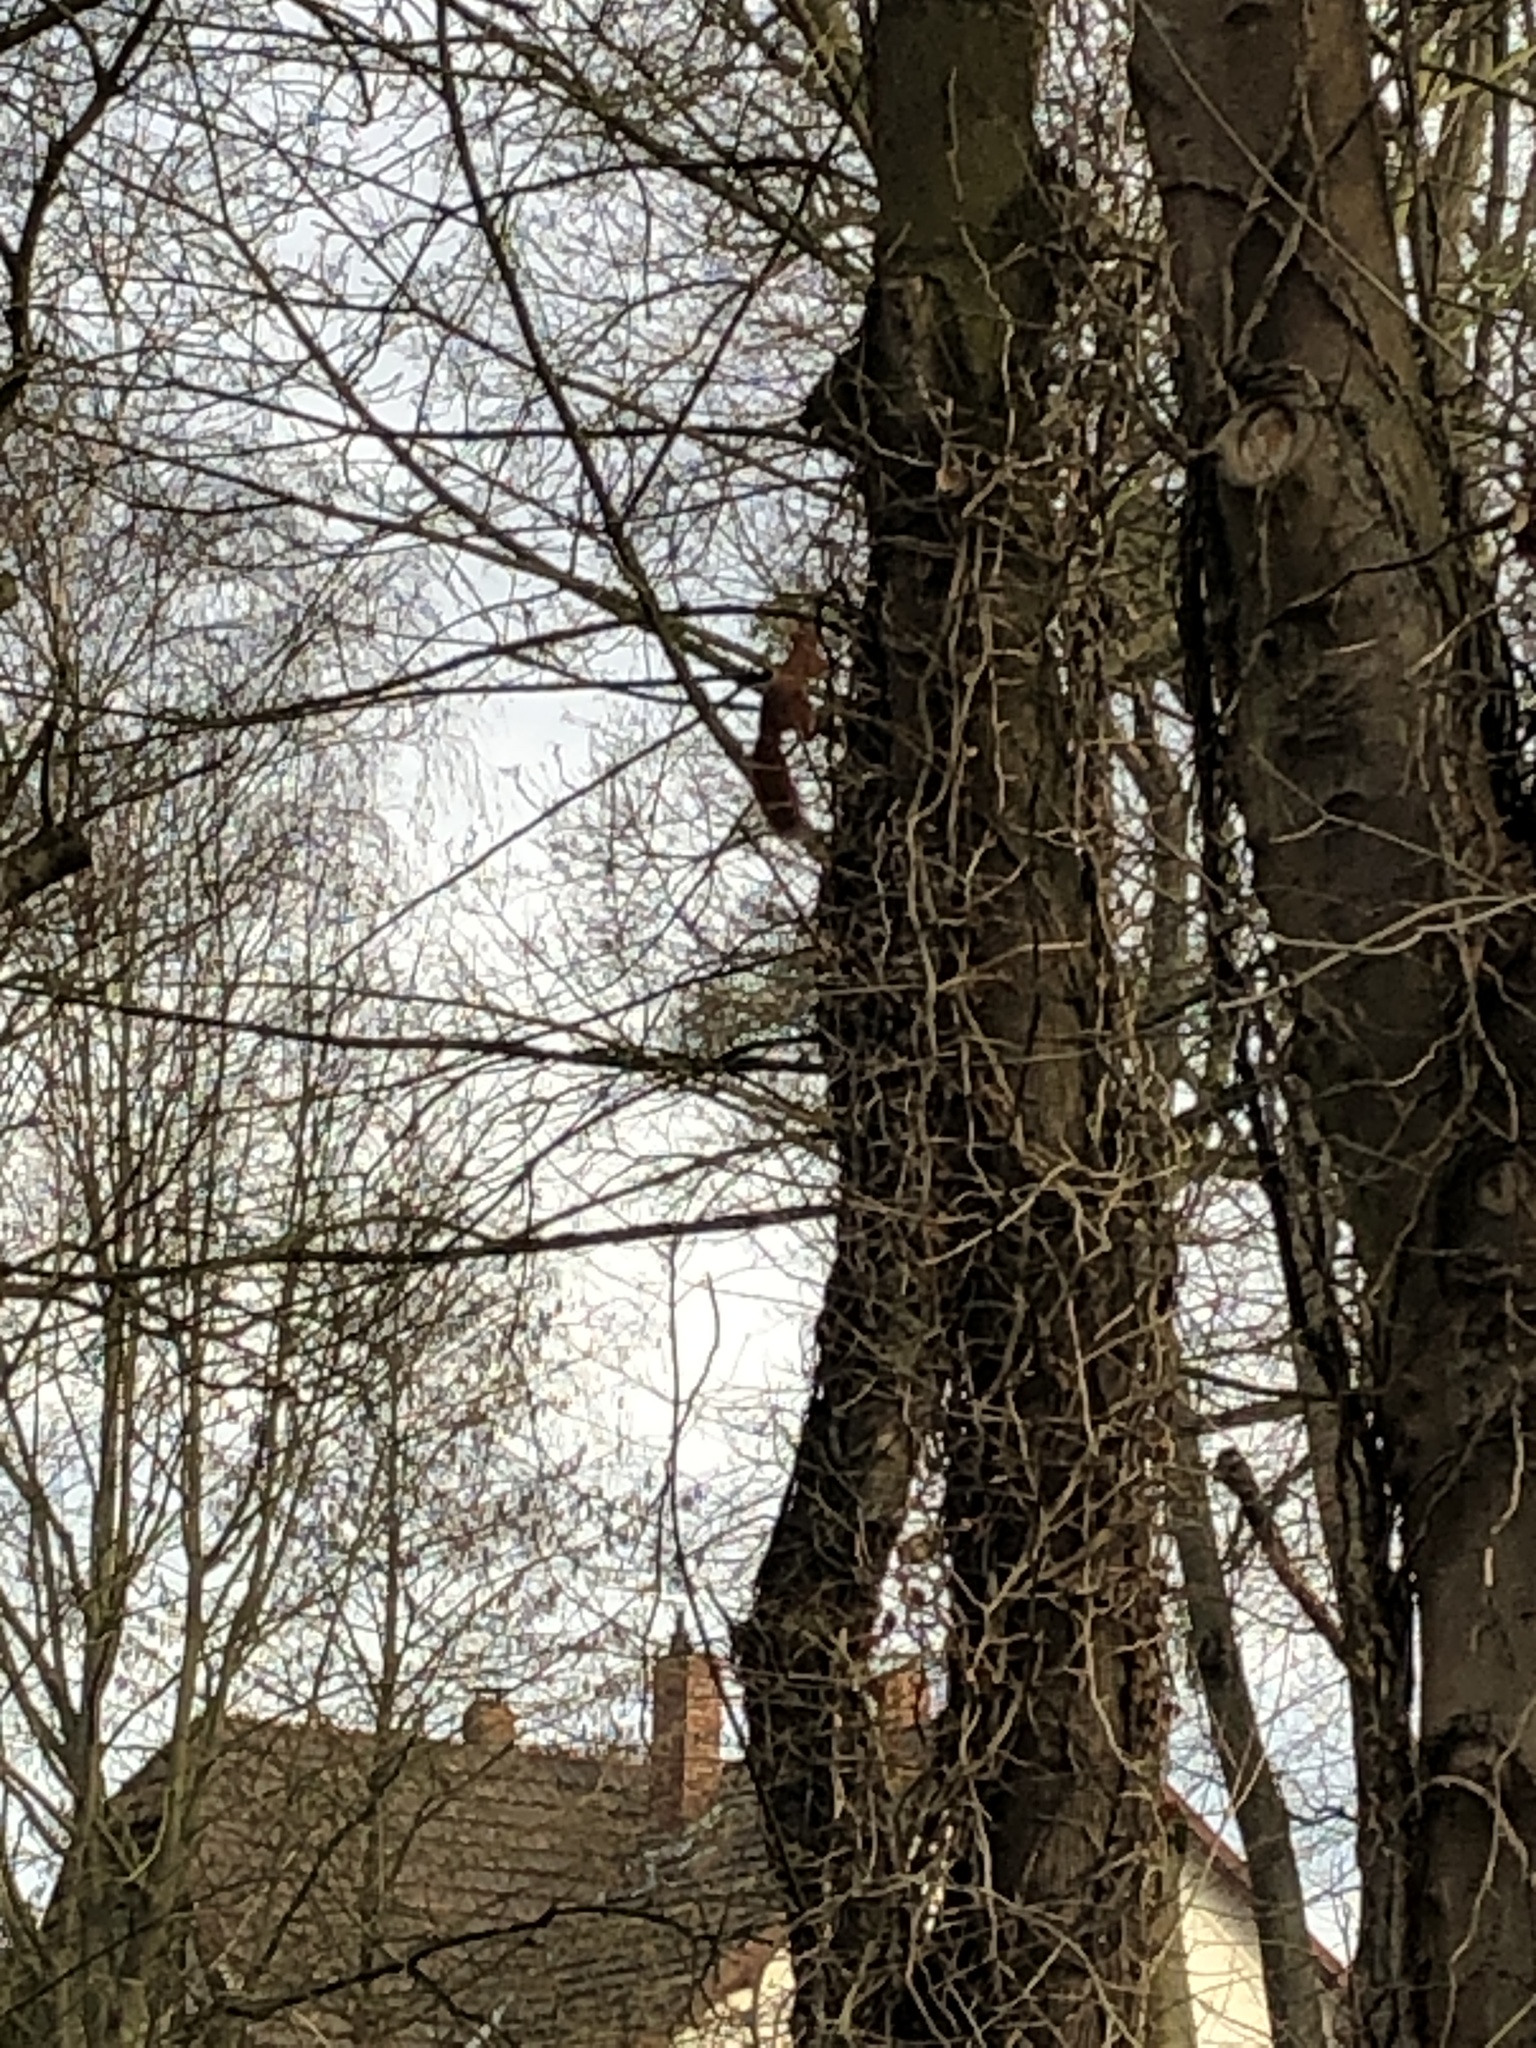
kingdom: Animalia
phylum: Chordata
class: Mammalia
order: Rodentia
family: Sciuridae
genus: Sciurus
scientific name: Sciurus vulgaris
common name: Eurasian red squirrel
